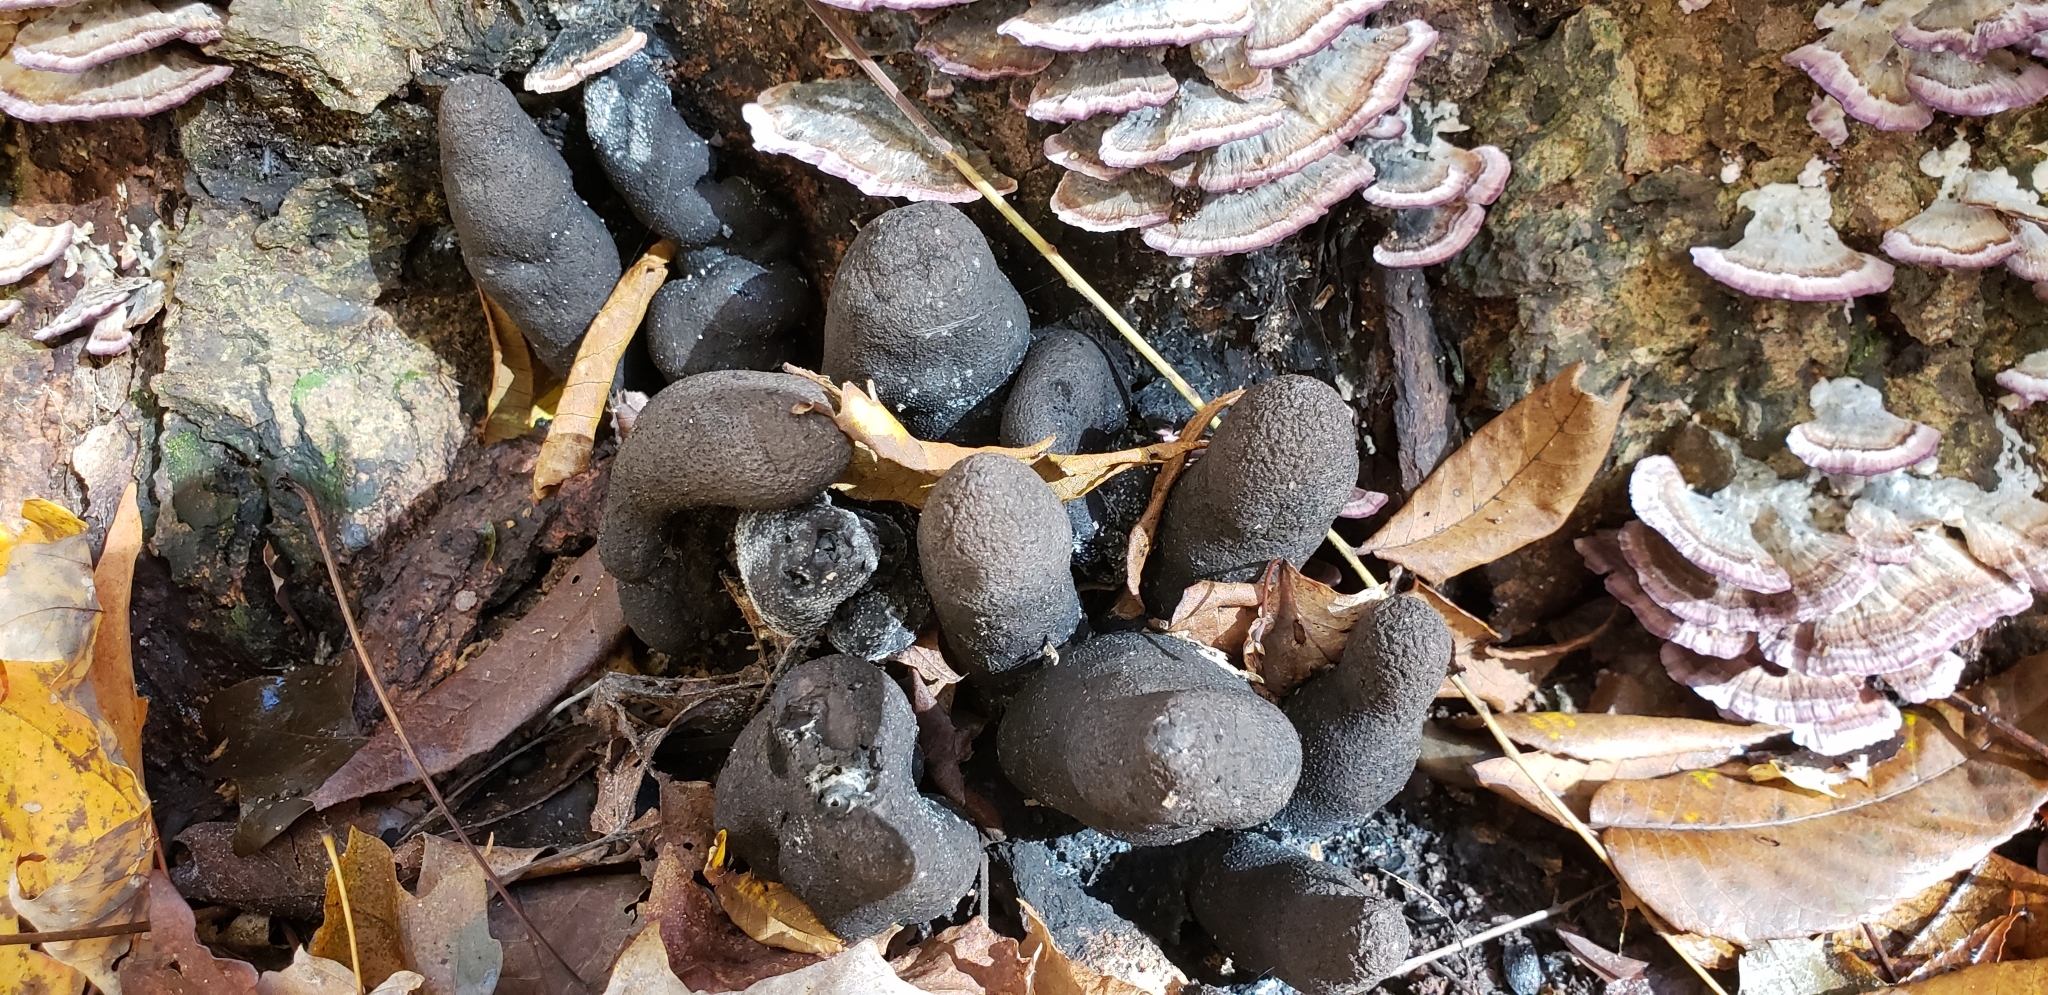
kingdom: Fungi
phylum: Ascomycota
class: Sordariomycetes
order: Xylariales
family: Xylariaceae
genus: Xylaria
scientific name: Xylaria polymorpha
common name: Dead man's fingers
